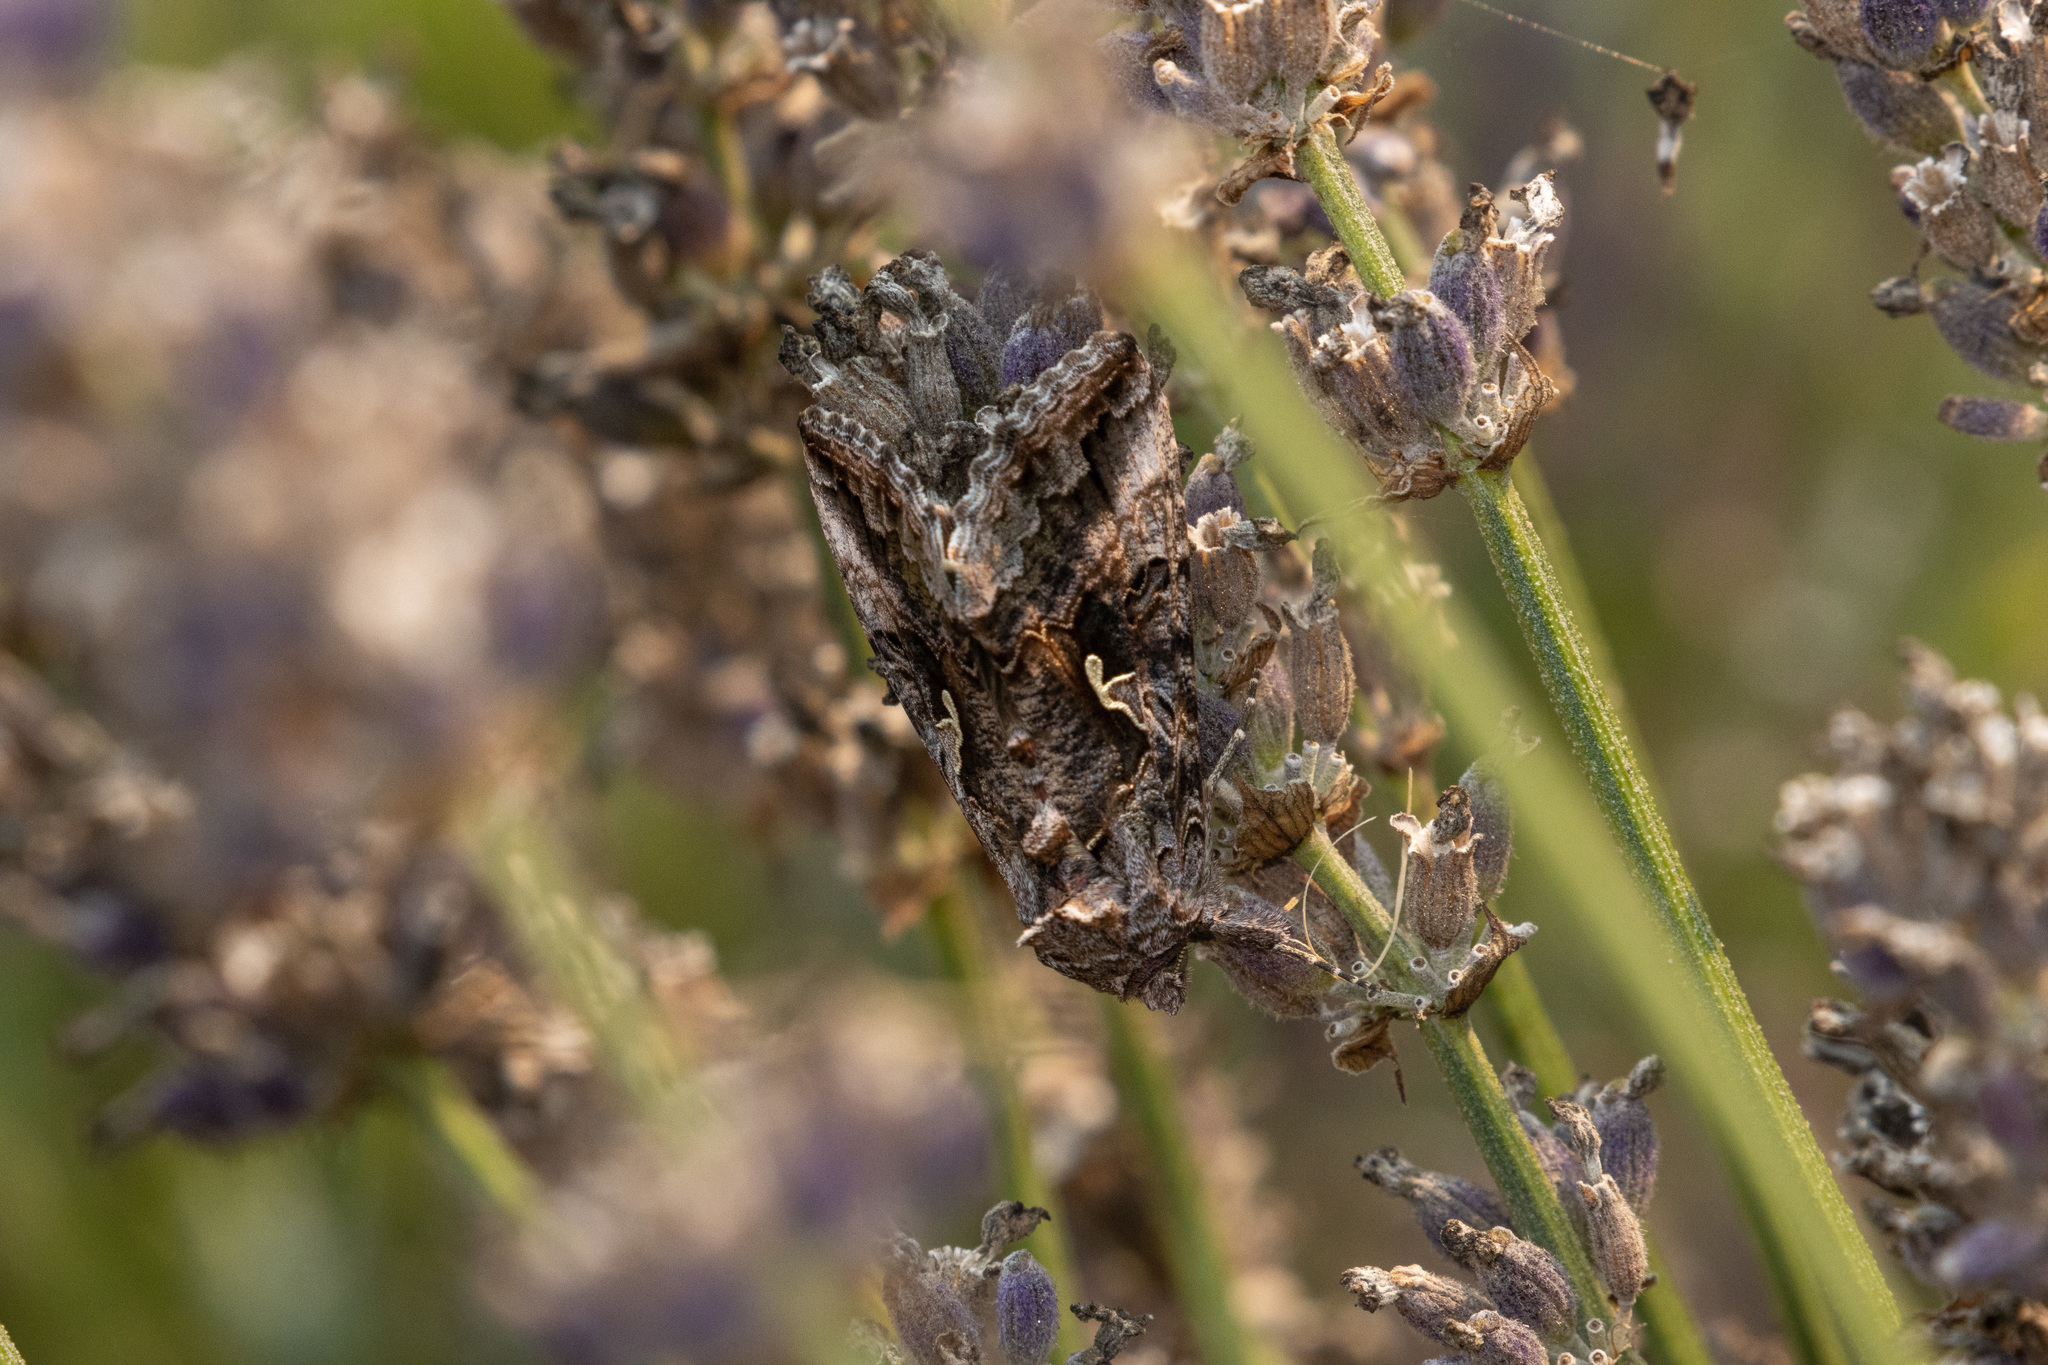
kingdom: Animalia
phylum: Arthropoda
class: Insecta
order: Lepidoptera
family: Noctuidae
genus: Autographa
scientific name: Autographa californica
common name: Alfalfa looper
